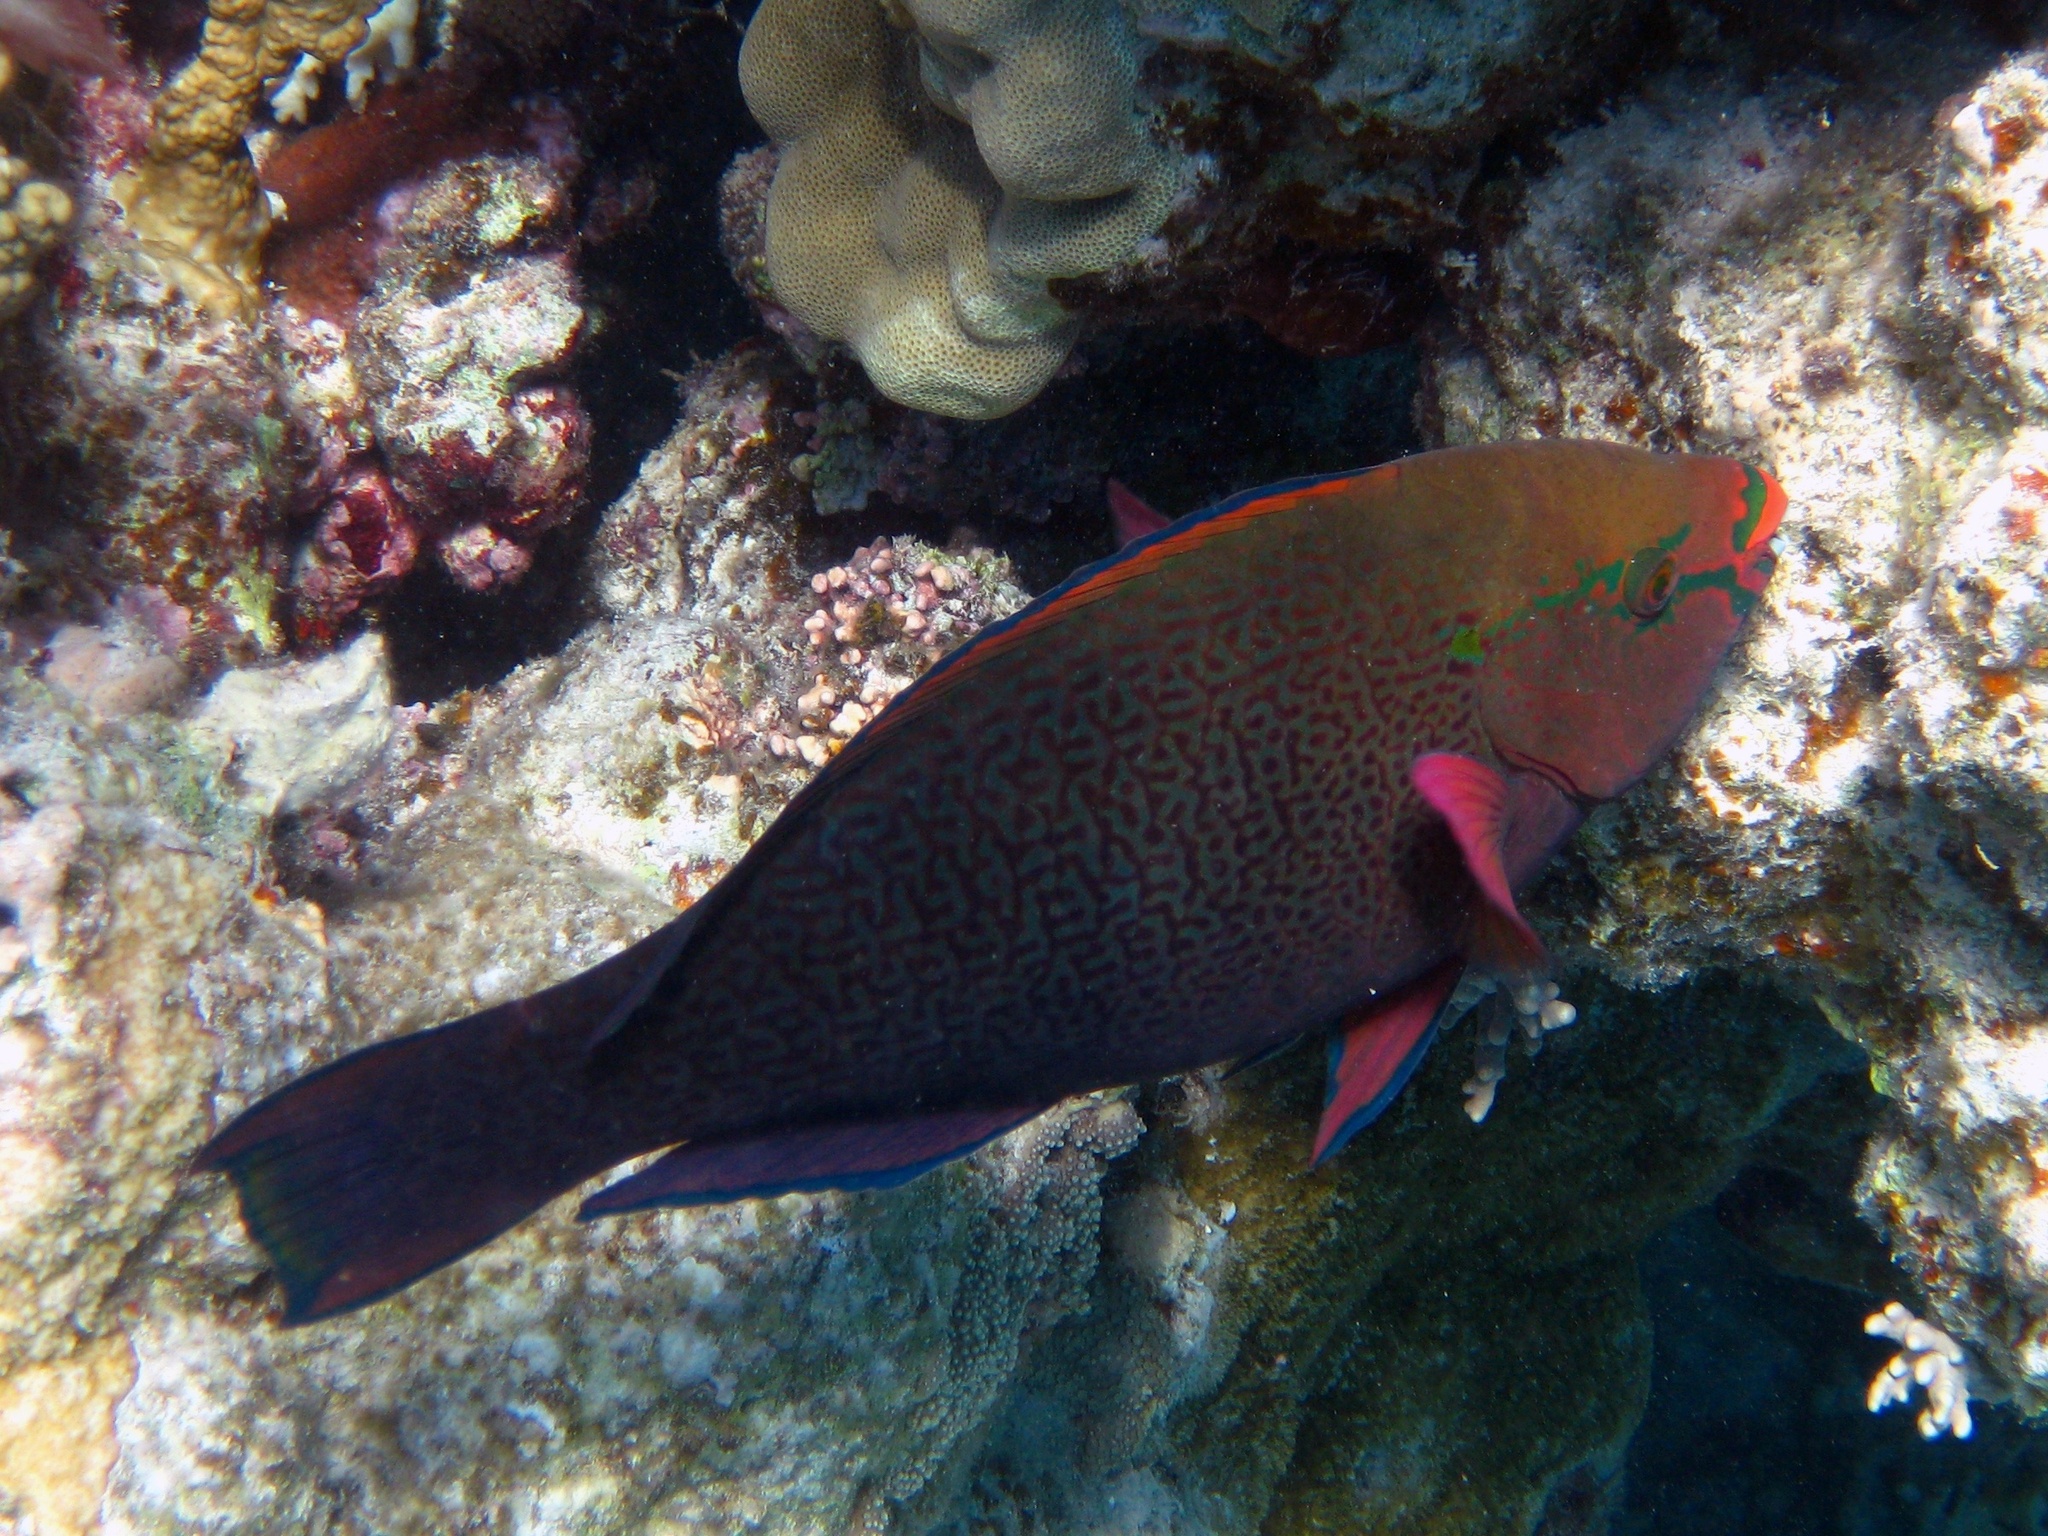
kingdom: Animalia
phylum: Chordata
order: Perciformes
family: Scaridae
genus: Scarus
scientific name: Scarus niger
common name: Dusky parrotfish
